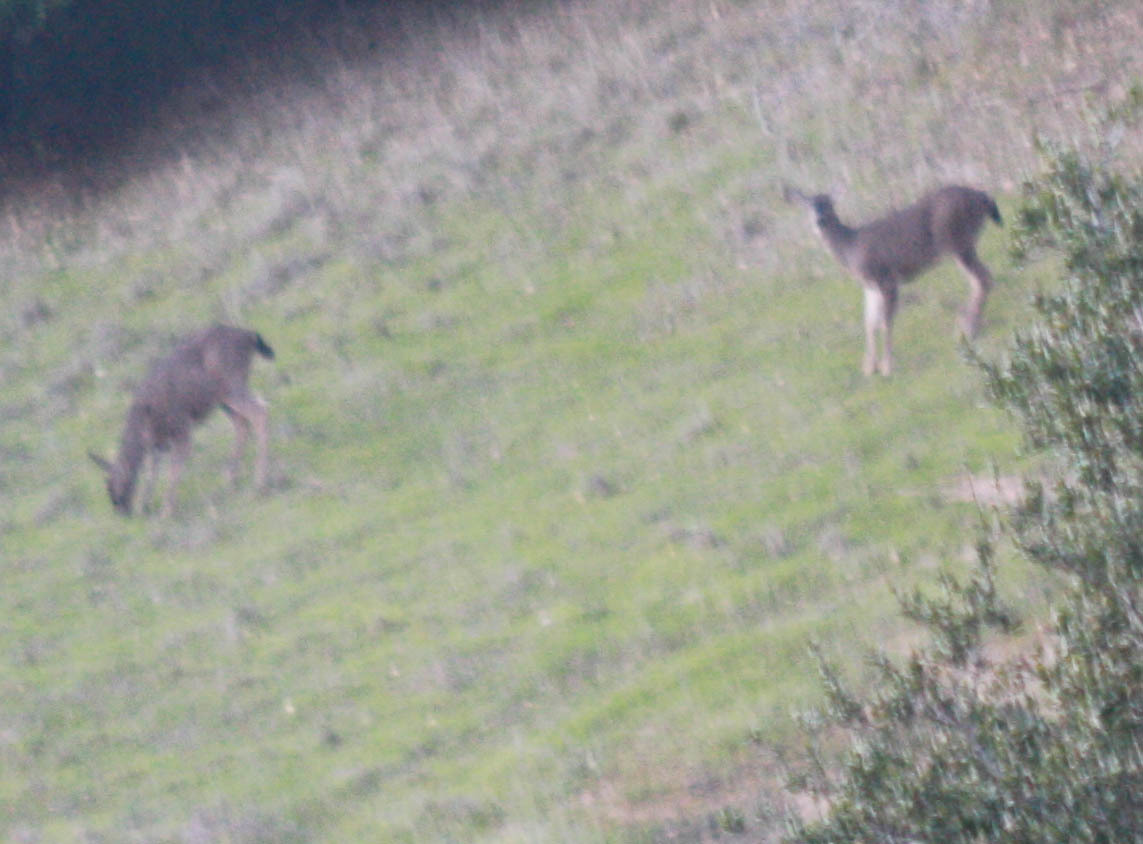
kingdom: Animalia
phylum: Chordata
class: Mammalia
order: Artiodactyla
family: Cervidae
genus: Odocoileus
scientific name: Odocoileus hemionus
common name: Mule deer
